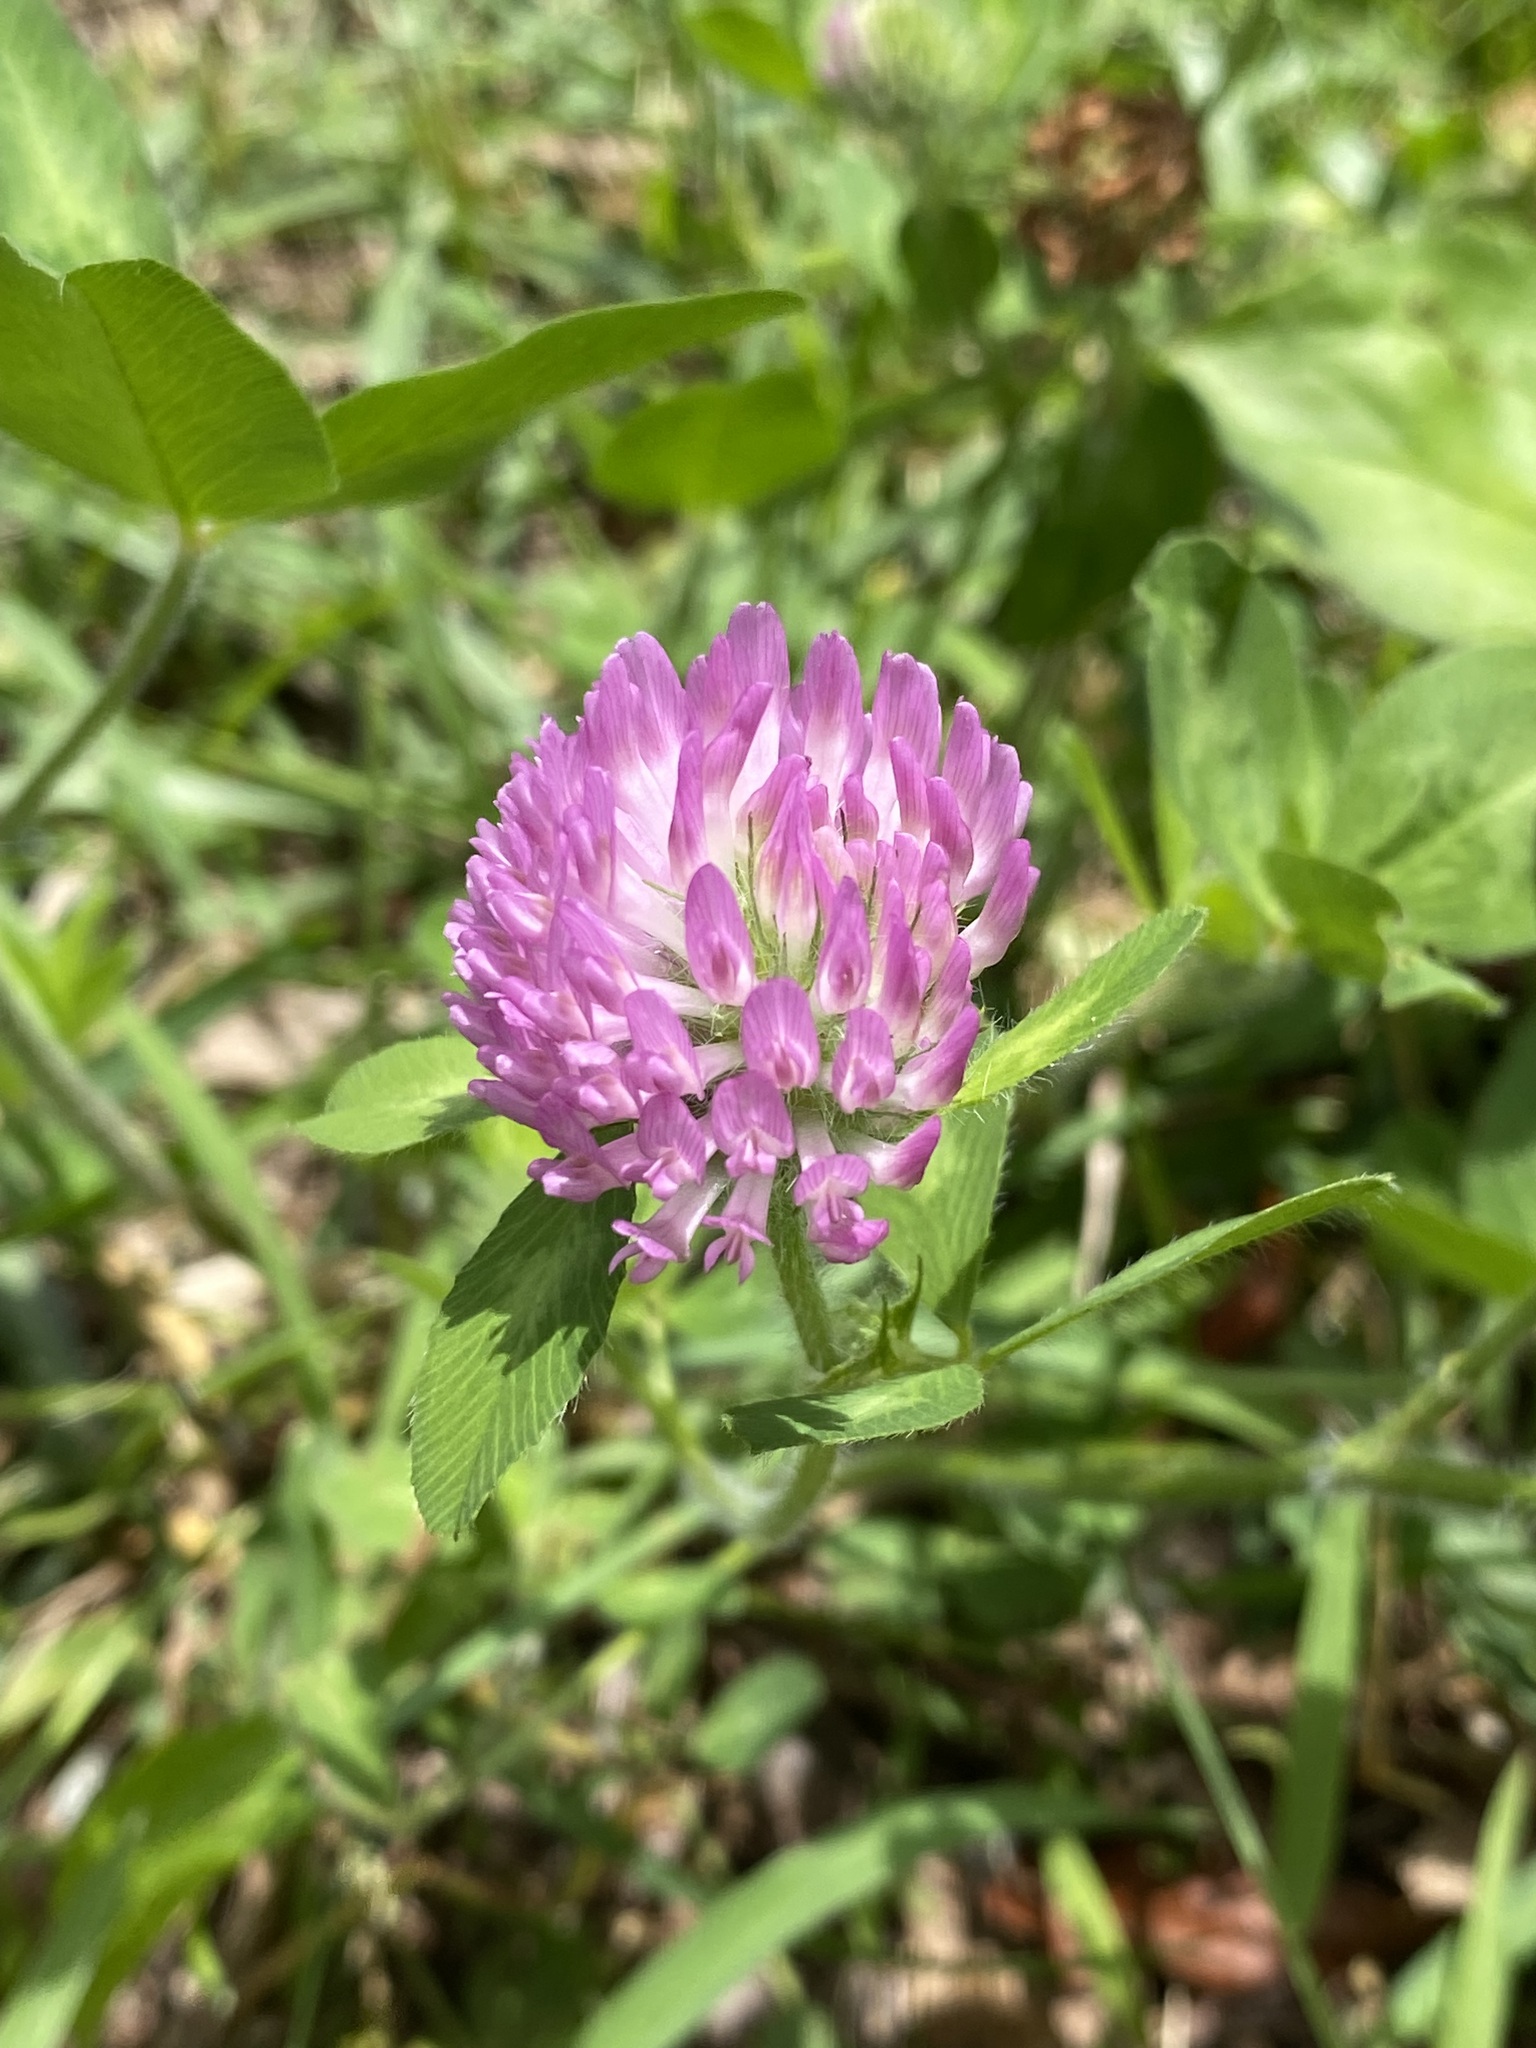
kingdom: Plantae
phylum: Tracheophyta
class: Magnoliopsida
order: Fabales
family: Fabaceae
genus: Trifolium
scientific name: Trifolium pratense
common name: Red clover
